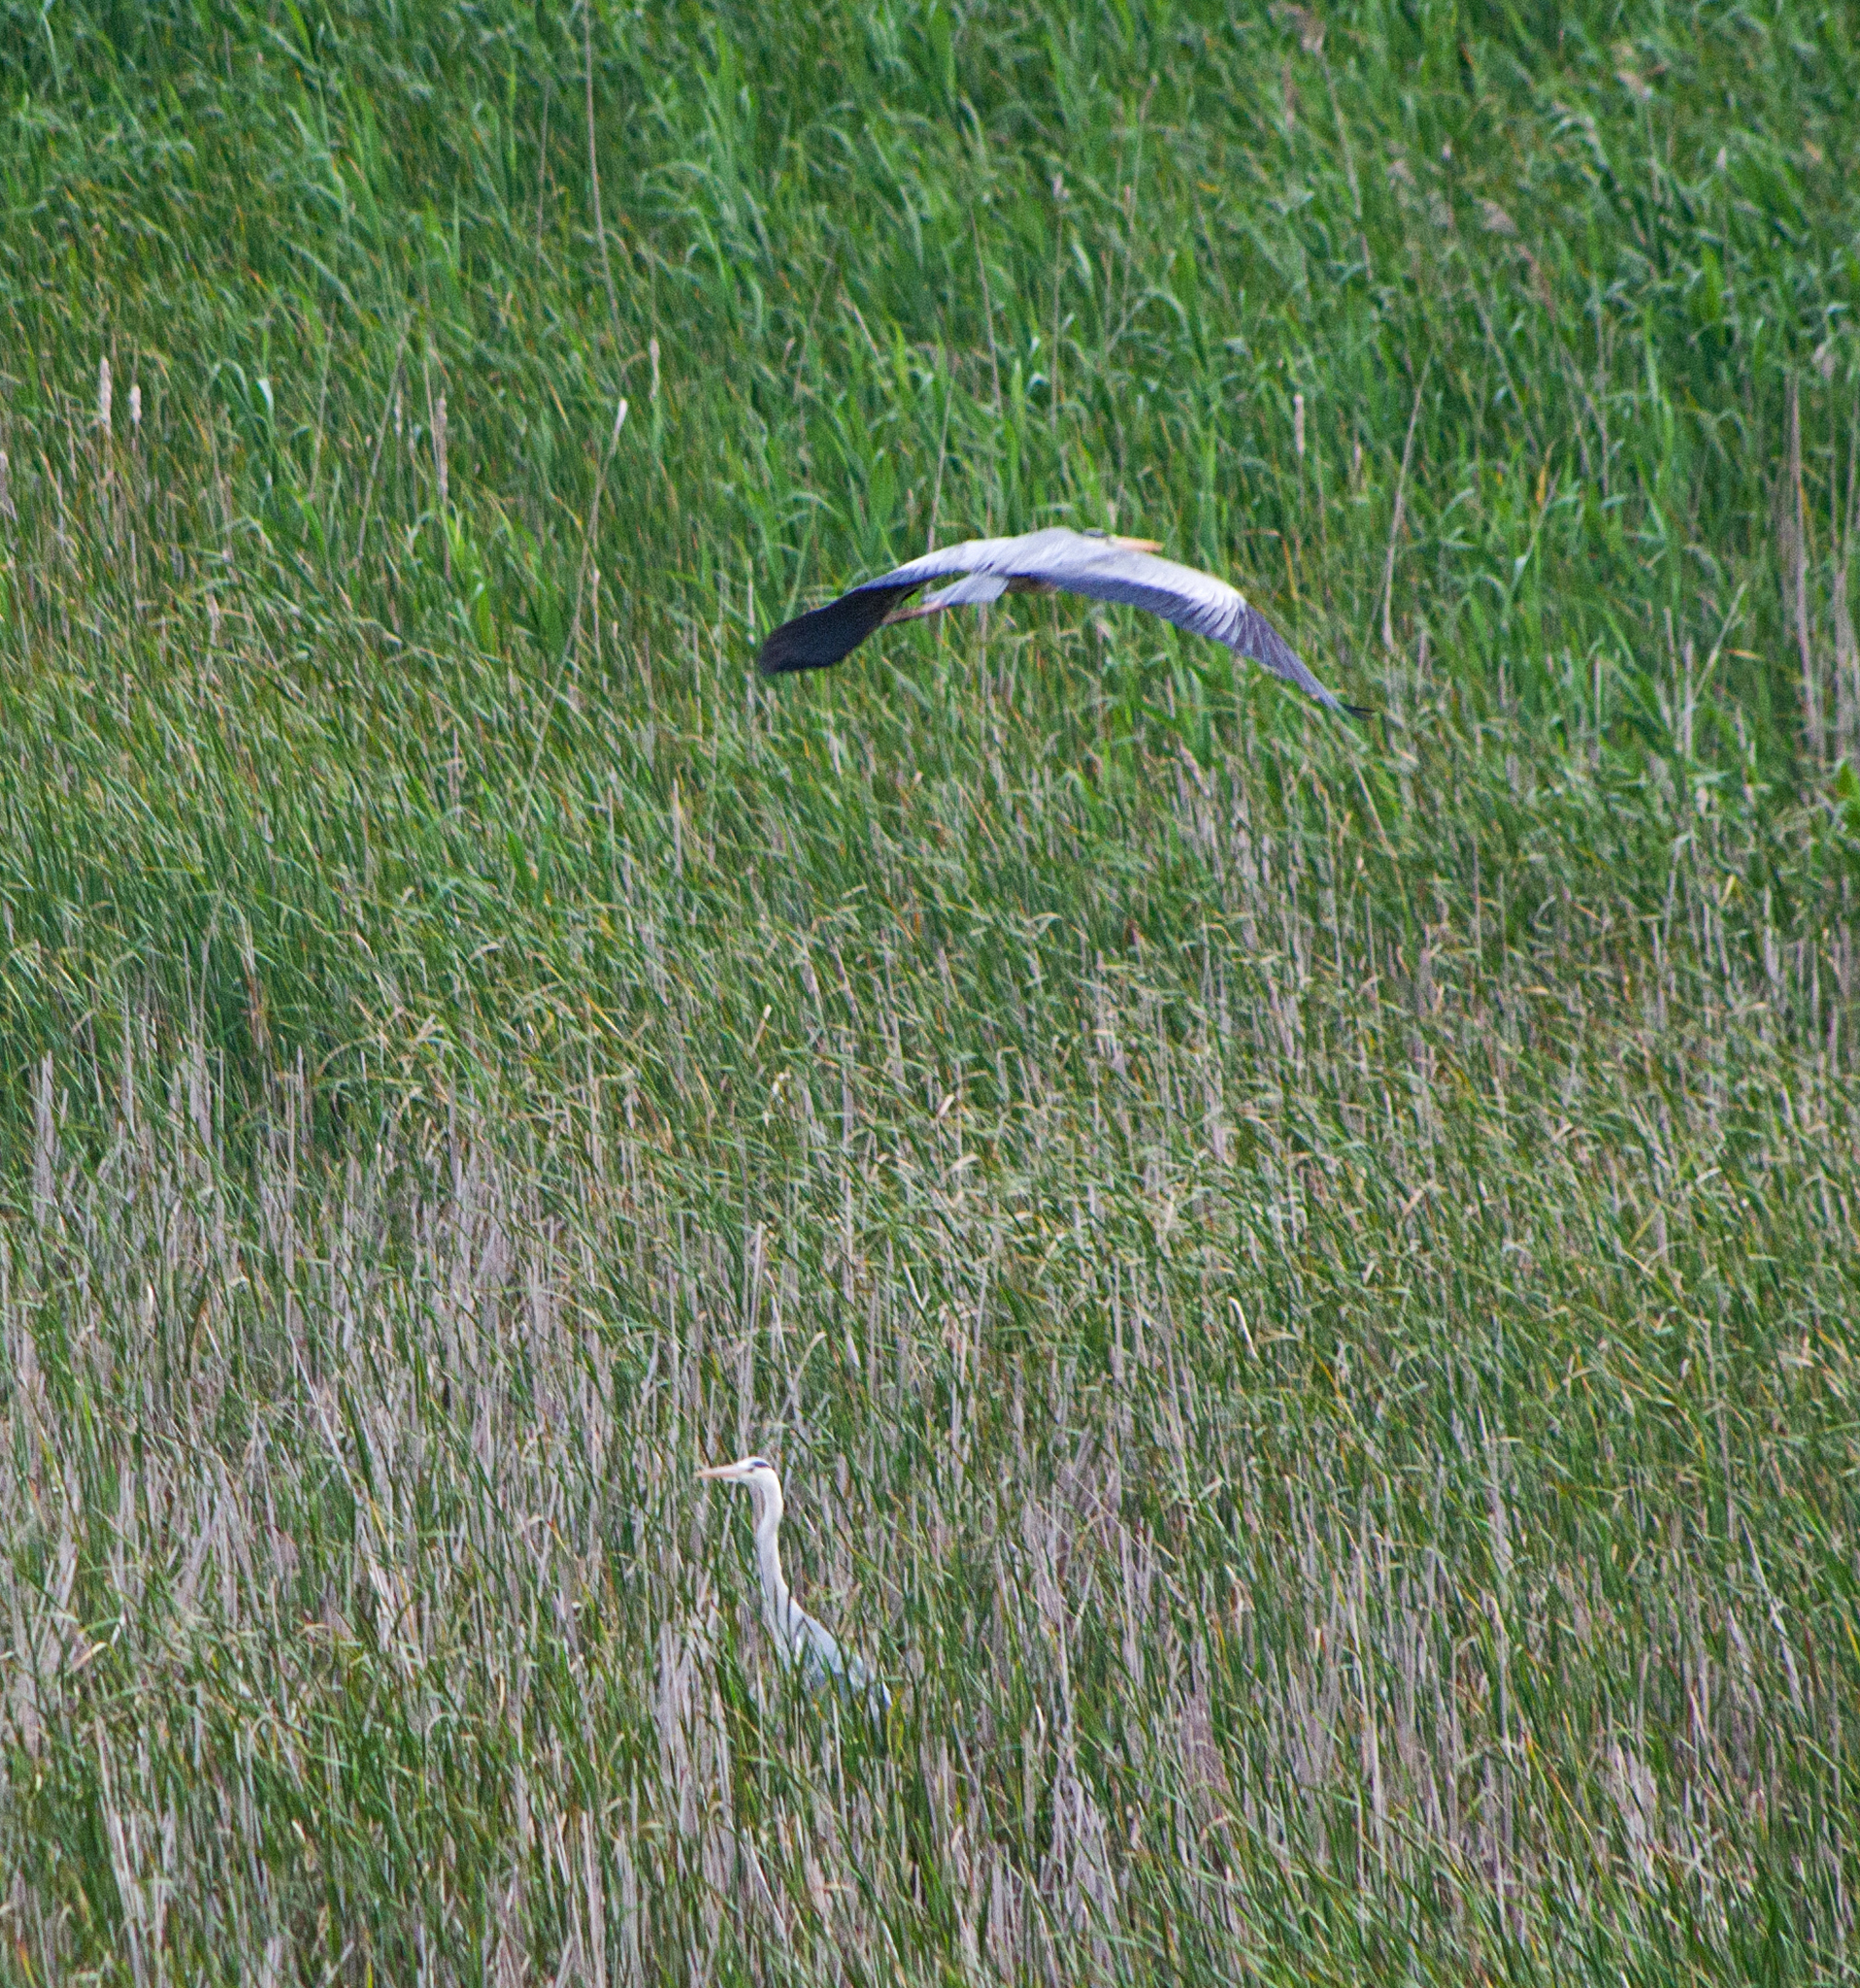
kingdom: Animalia
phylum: Chordata
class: Aves
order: Pelecaniformes
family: Ardeidae
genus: Ardea
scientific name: Ardea cinerea
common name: Grey heron
